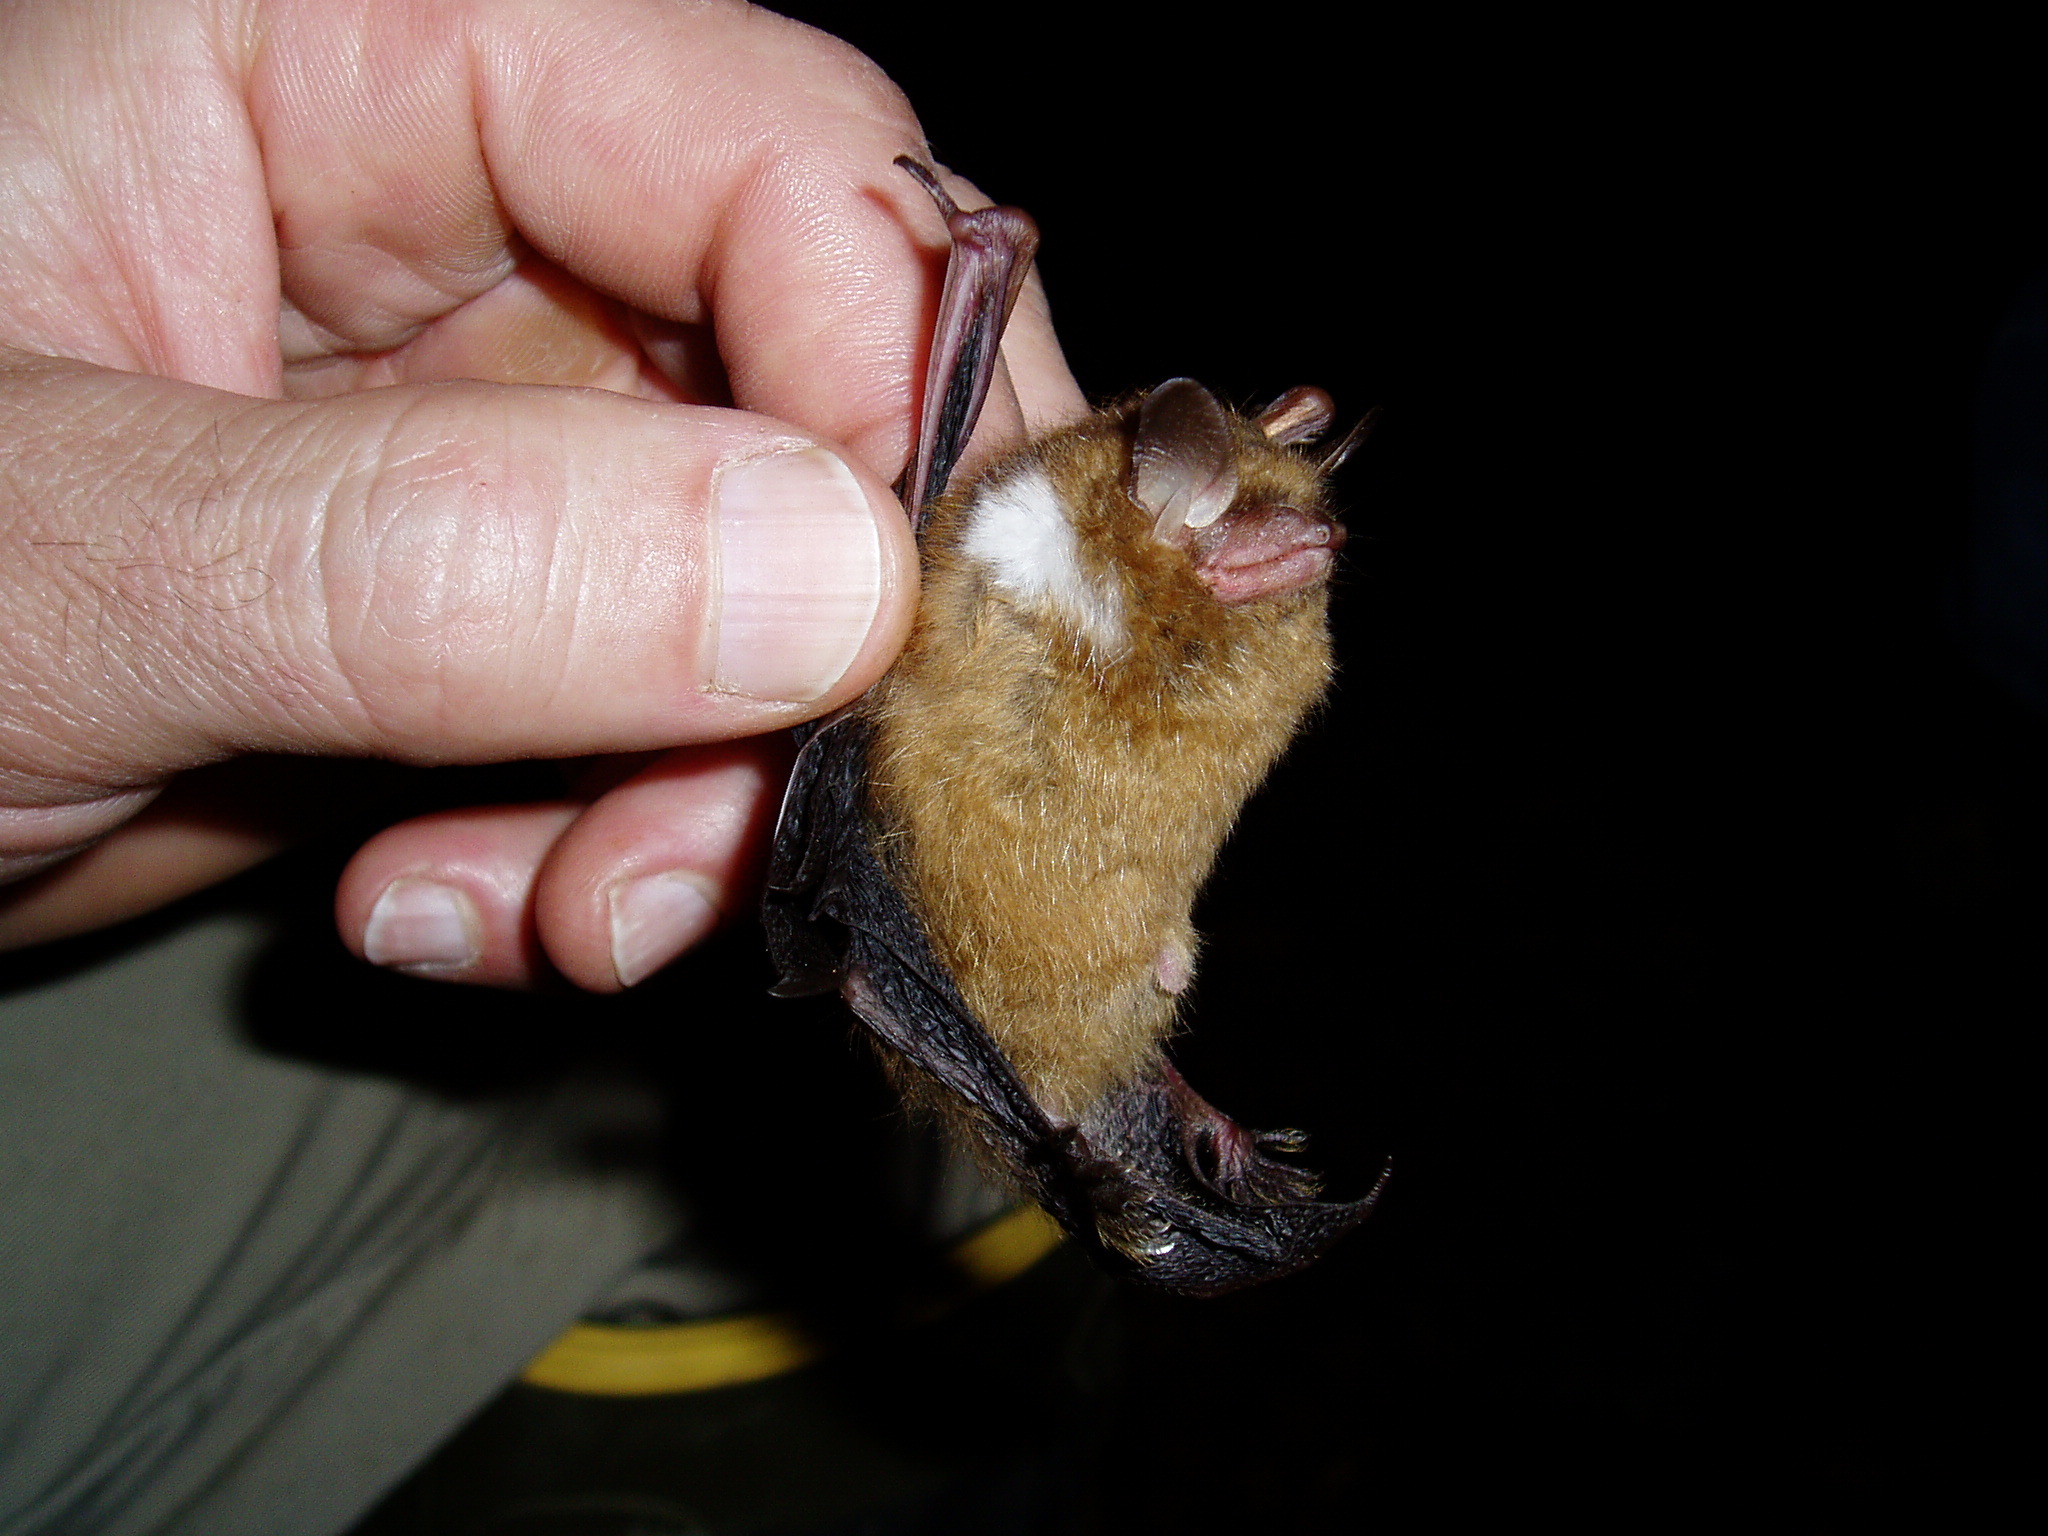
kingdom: Animalia
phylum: Chordata
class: Mammalia
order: Chiroptera
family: Vespertilionidae
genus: Perimyotis
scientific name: Perimyotis subflavus
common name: Eastern pipistrelle
